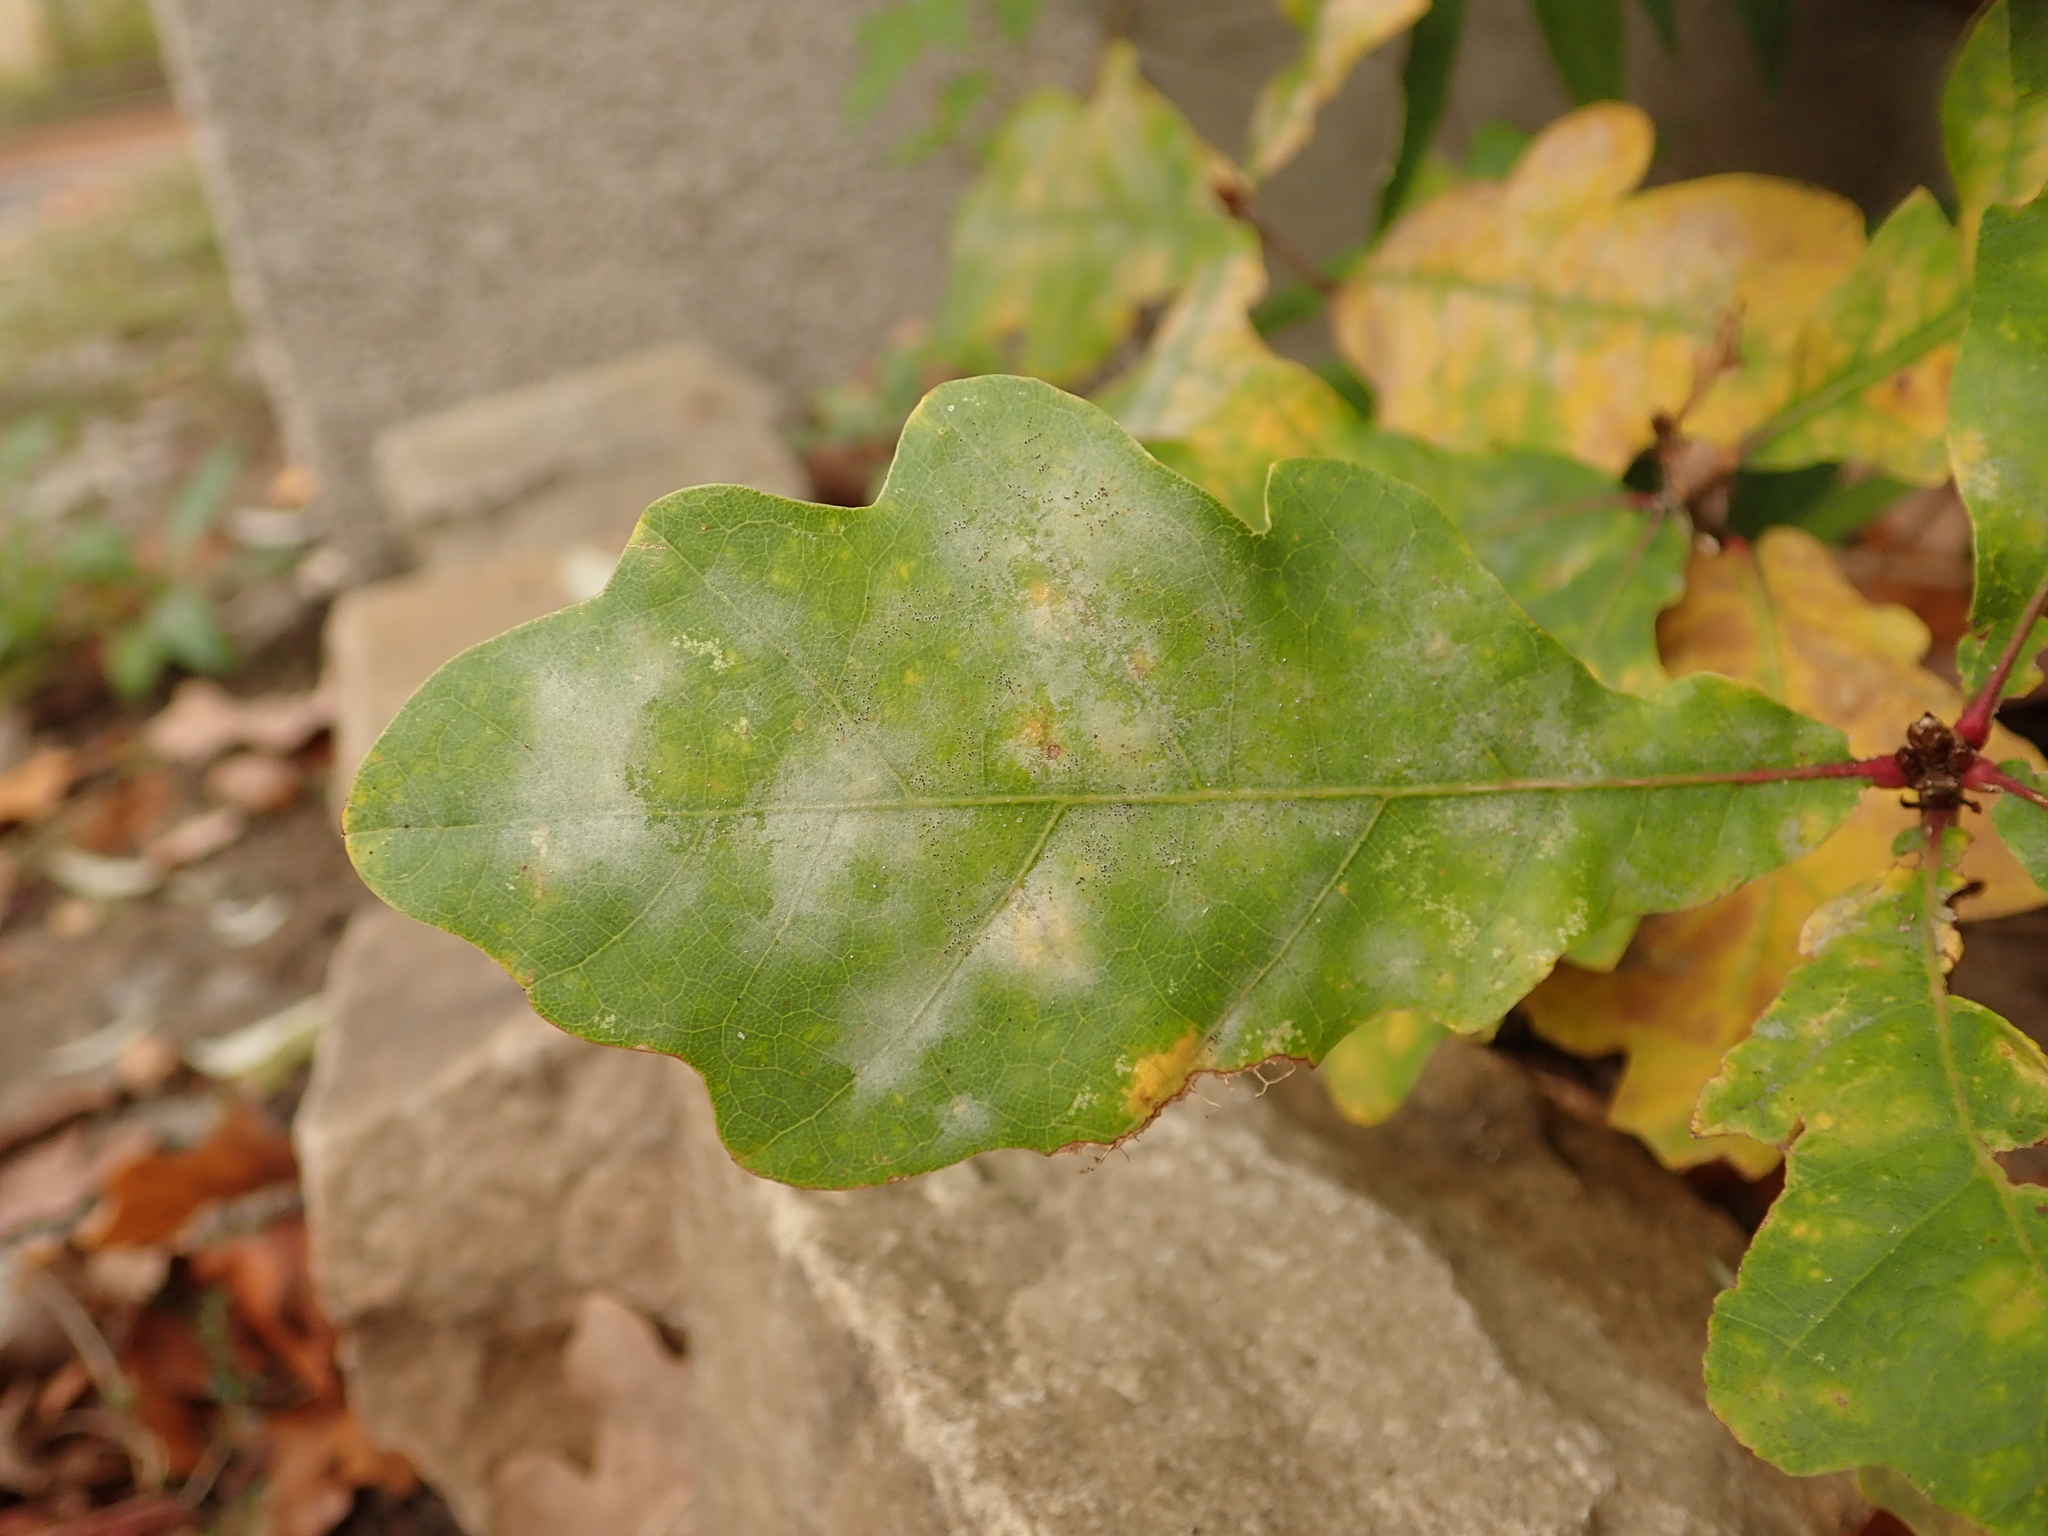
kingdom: Fungi
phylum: Ascomycota
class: Leotiomycetes
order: Helotiales
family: Erysiphaceae
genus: Erysiphe
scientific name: Erysiphe
